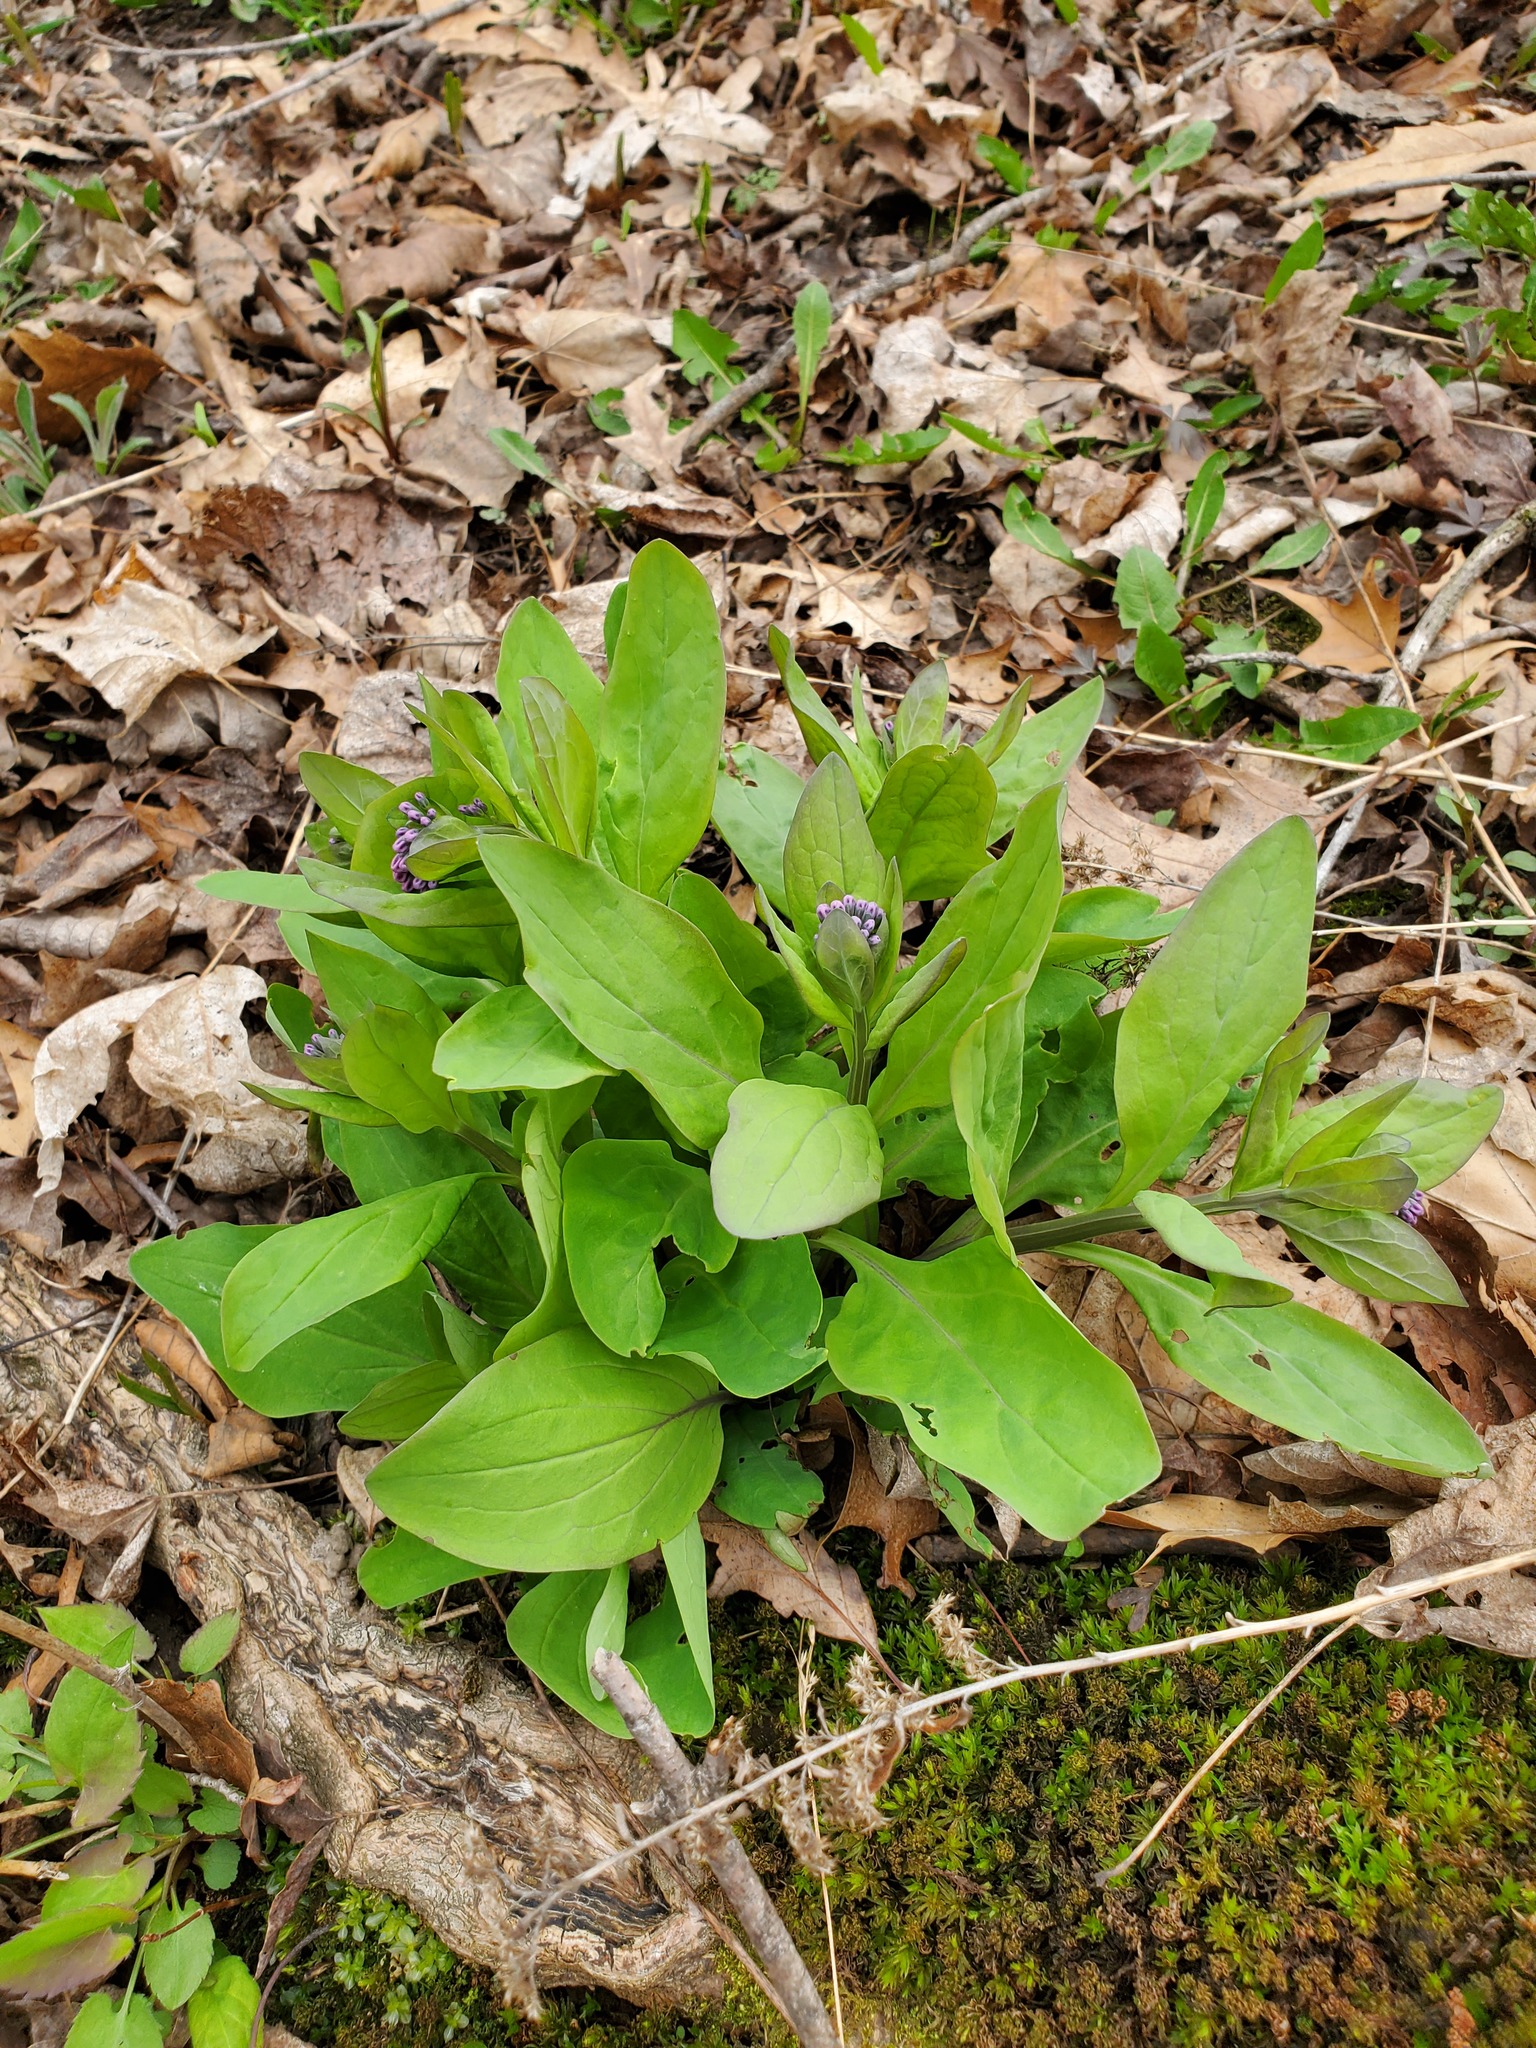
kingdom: Plantae
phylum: Tracheophyta
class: Magnoliopsida
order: Boraginales
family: Boraginaceae
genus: Mertensia
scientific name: Mertensia virginica
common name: Virginia bluebells
